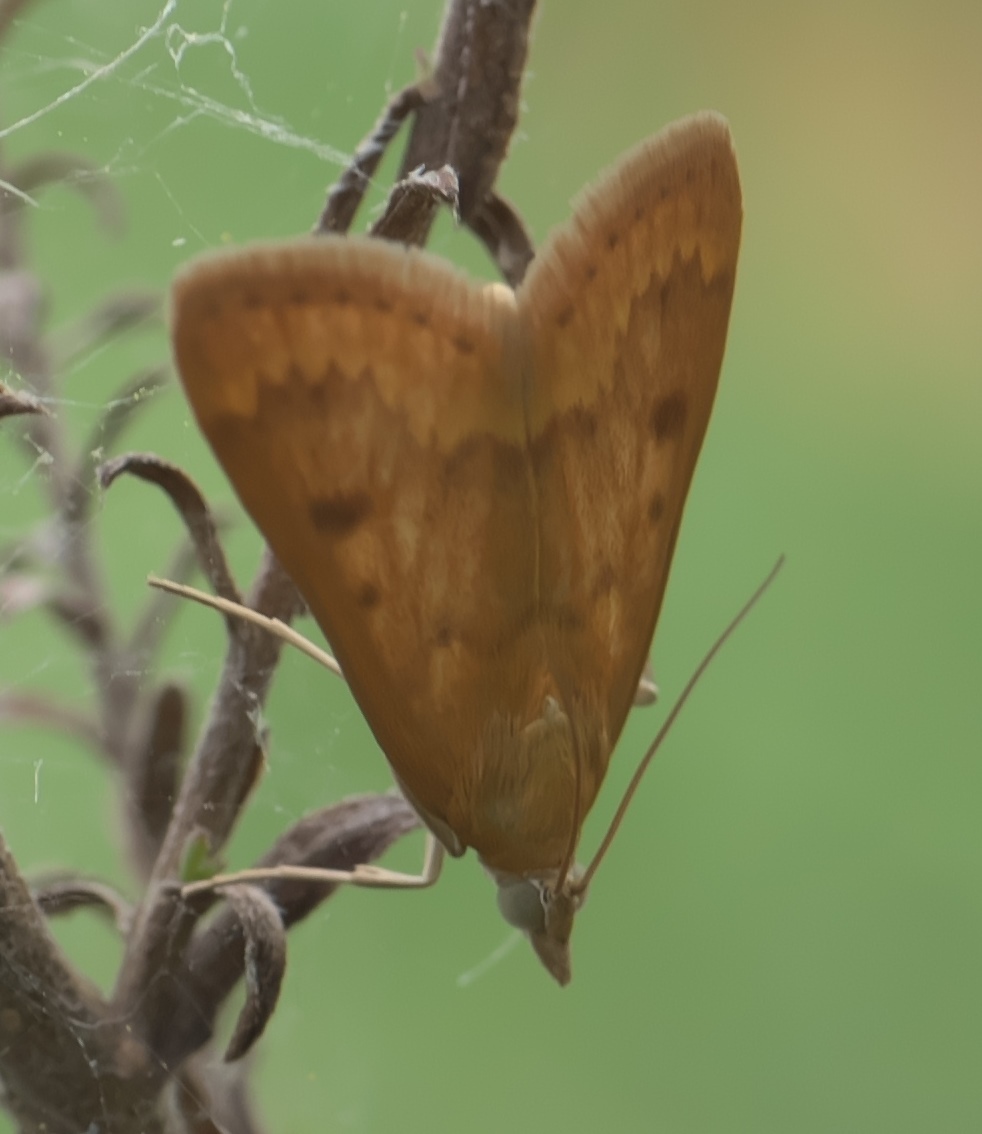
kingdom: Animalia
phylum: Arthropoda
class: Insecta
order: Lepidoptera
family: Crambidae
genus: Achyra
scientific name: Achyra rantalis
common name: Garden webworm
